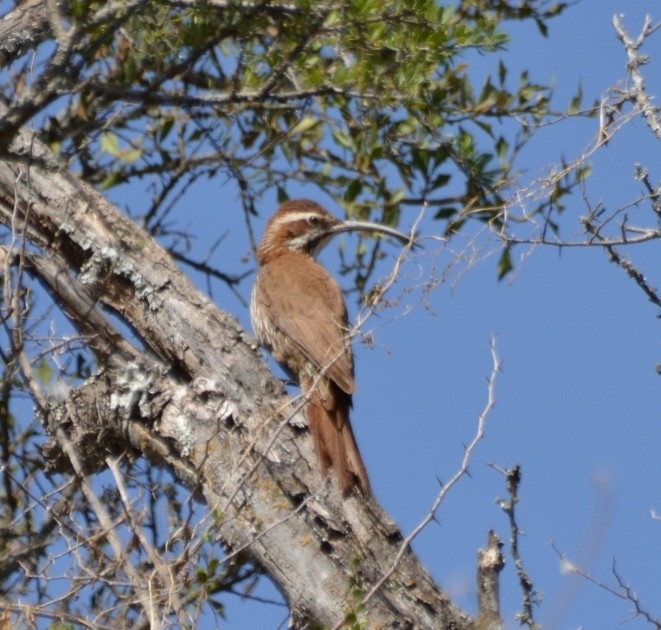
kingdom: Animalia
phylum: Chordata
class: Aves
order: Passeriformes
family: Furnariidae
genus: Drymornis
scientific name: Drymornis bridgesii
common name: Scimitar-billed woodcreeper
